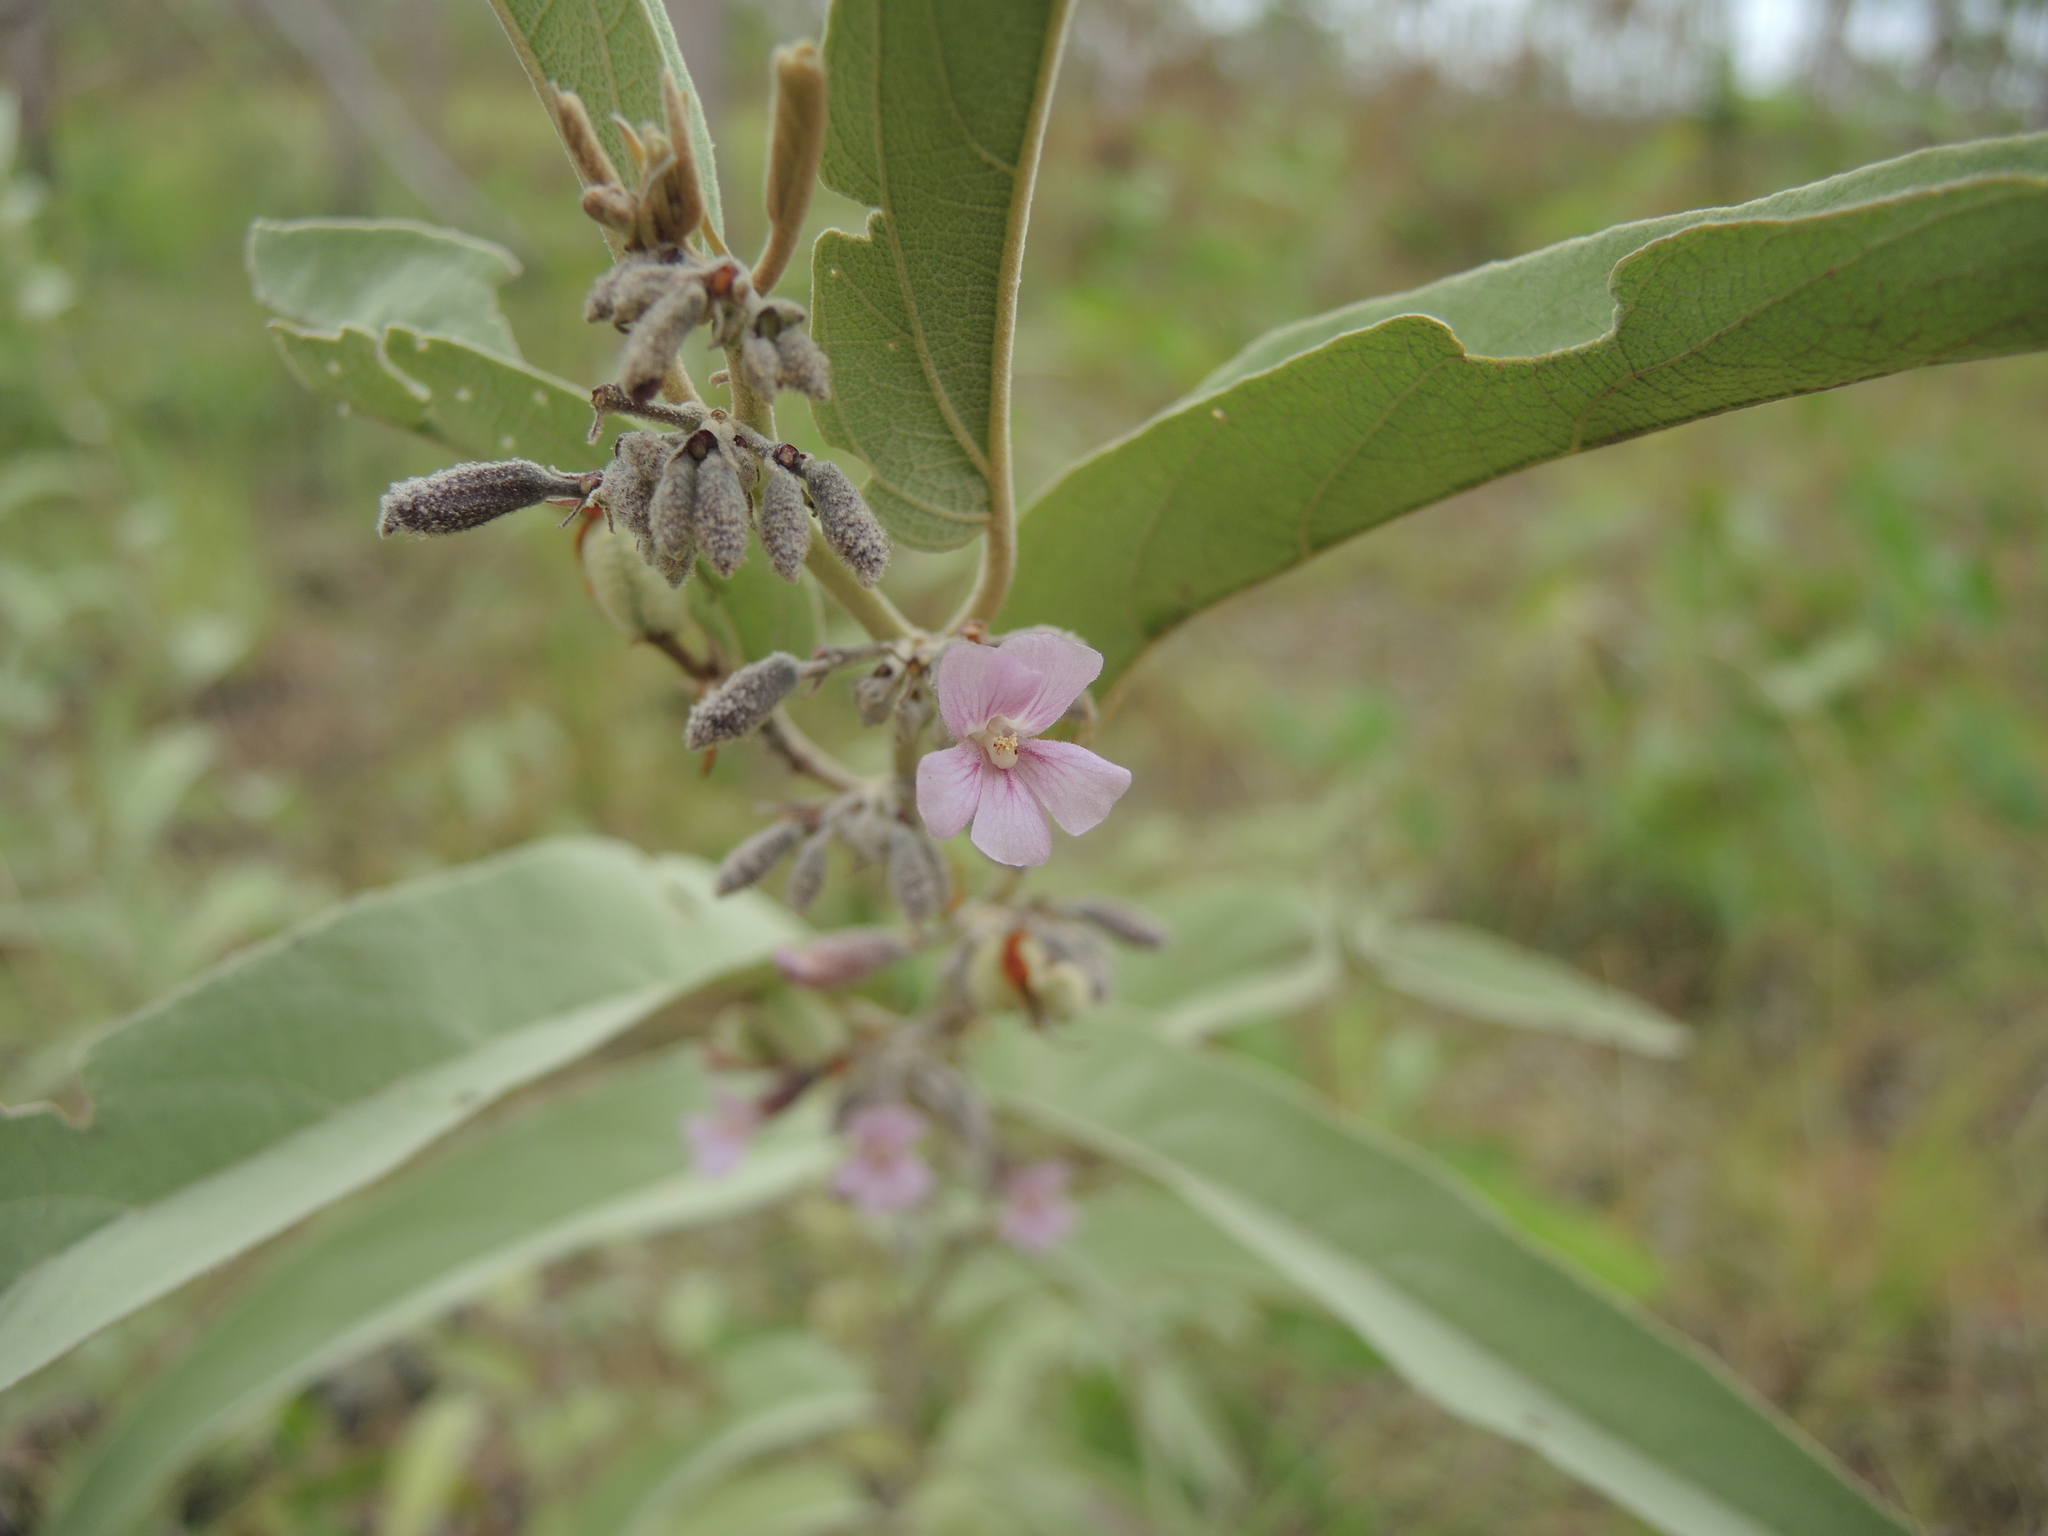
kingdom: Plantae
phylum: Tracheophyta
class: Magnoliopsida
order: Malvales
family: Malvaceae
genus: Helicteres
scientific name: Helicteres cana
